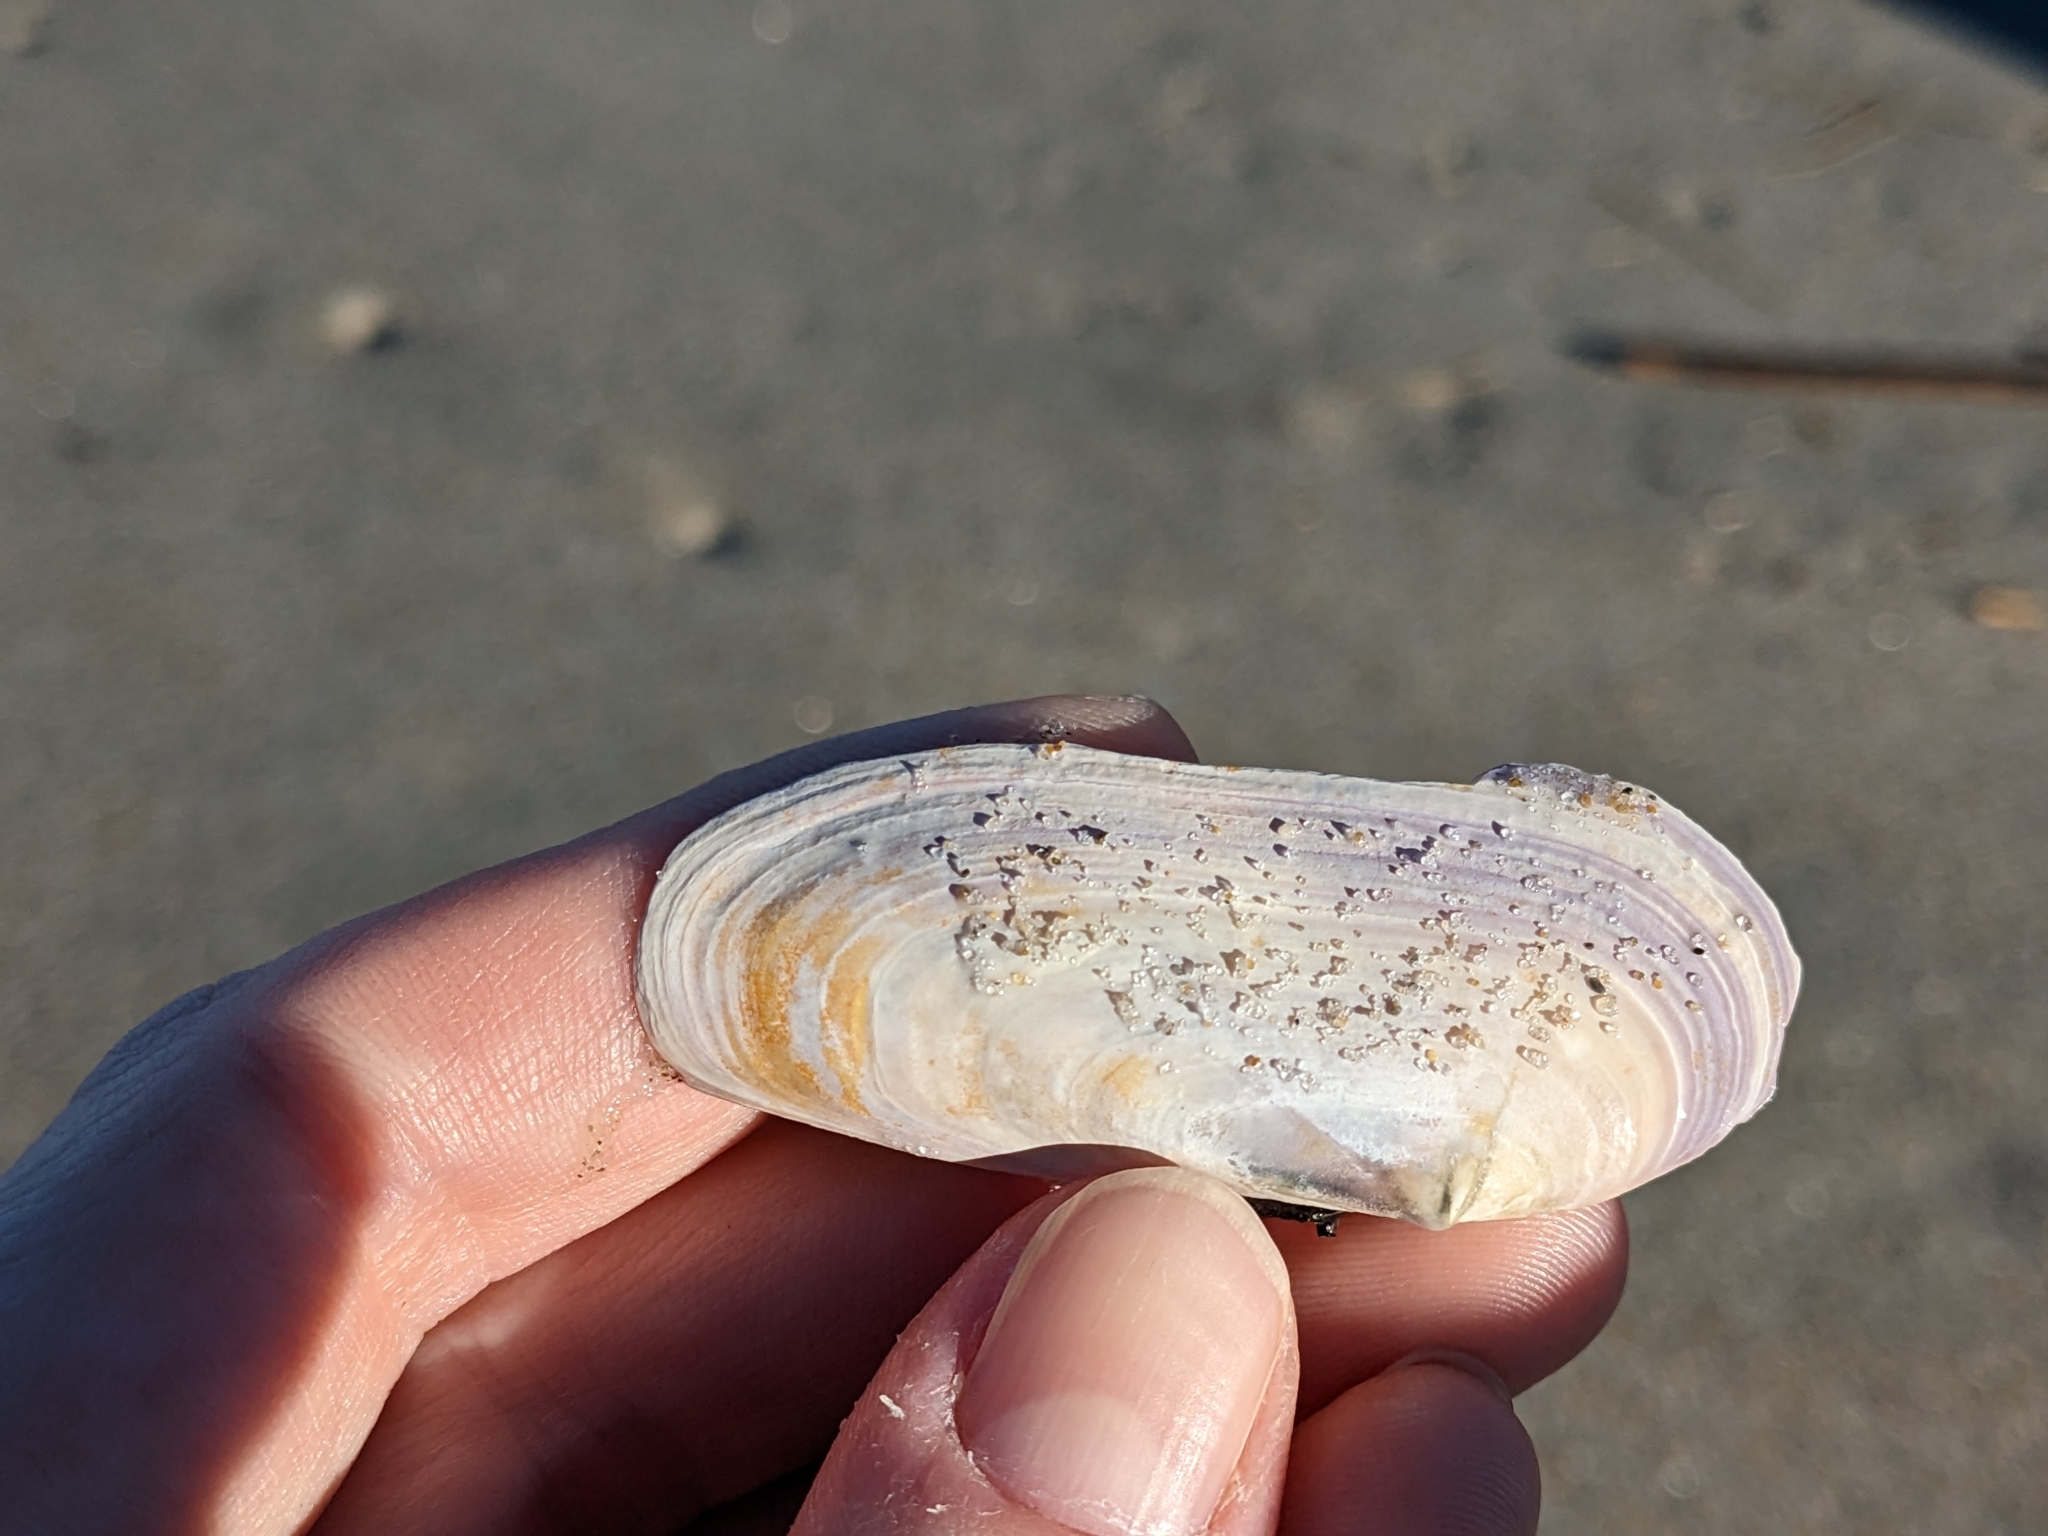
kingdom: Animalia
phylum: Mollusca
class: Bivalvia
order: Adapedonta
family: Pharidae
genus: Siliqua
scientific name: Siliqua costata
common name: Atlantic razor
